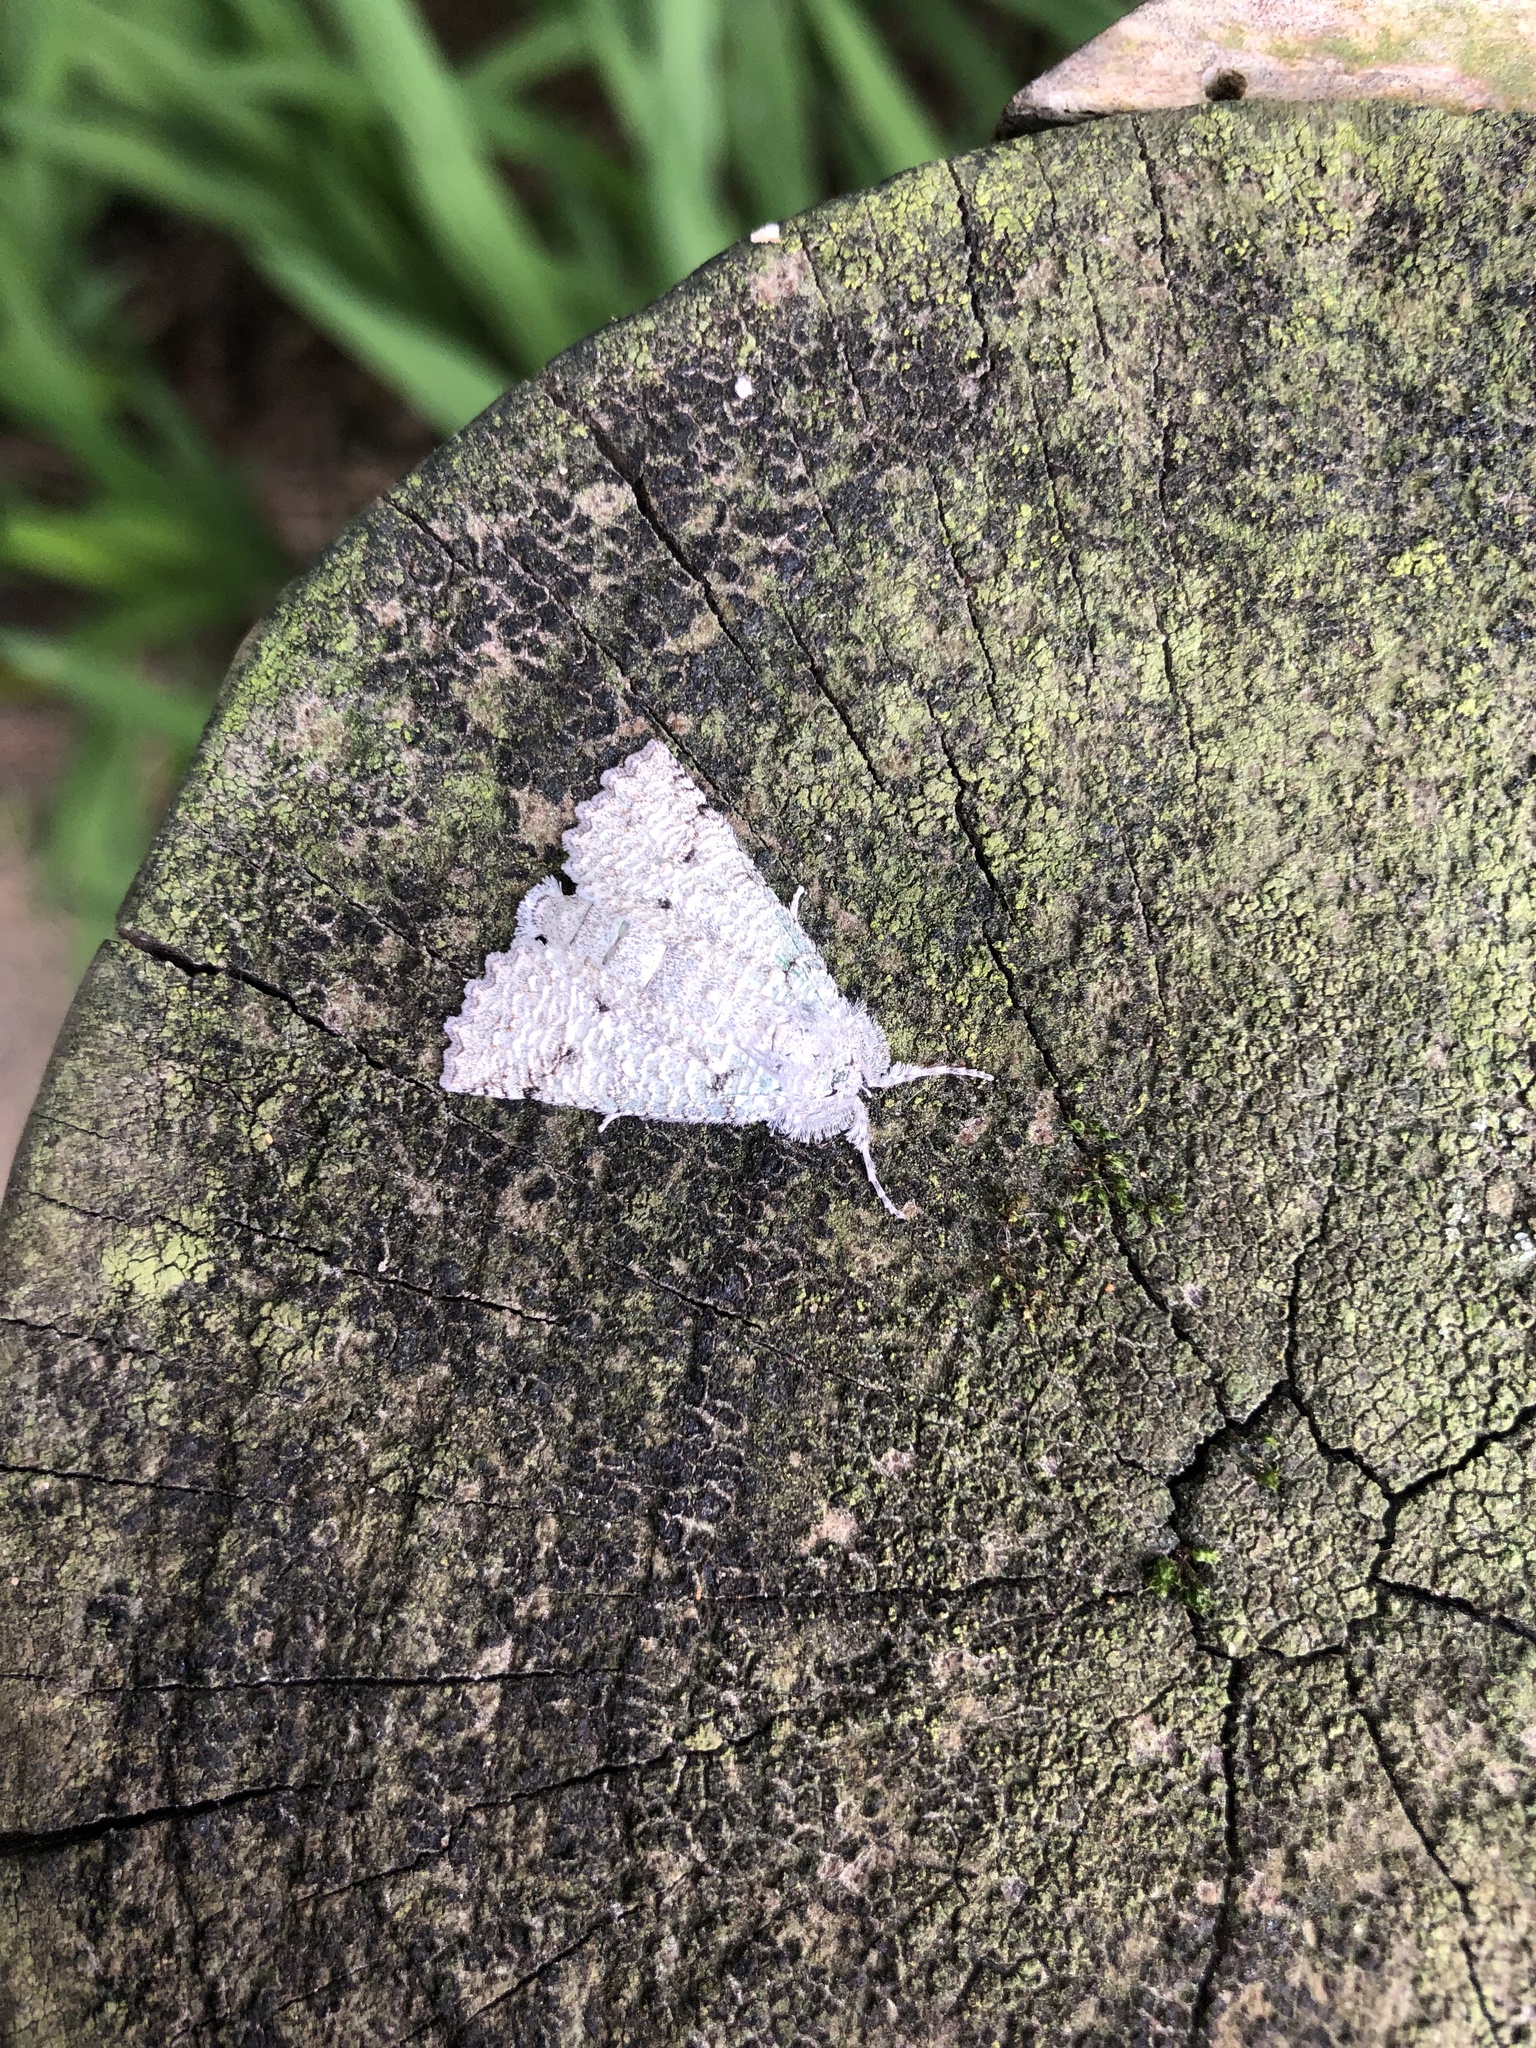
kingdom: Animalia
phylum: Arthropoda
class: Insecta
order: Lepidoptera
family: Geometridae
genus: Declana
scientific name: Declana floccosa
